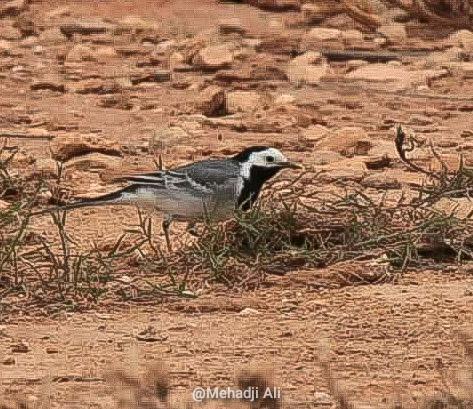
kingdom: Animalia
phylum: Chordata
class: Aves
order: Passeriformes
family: Motacillidae
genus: Motacilla
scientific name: Motacilla alba
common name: White wagtail
